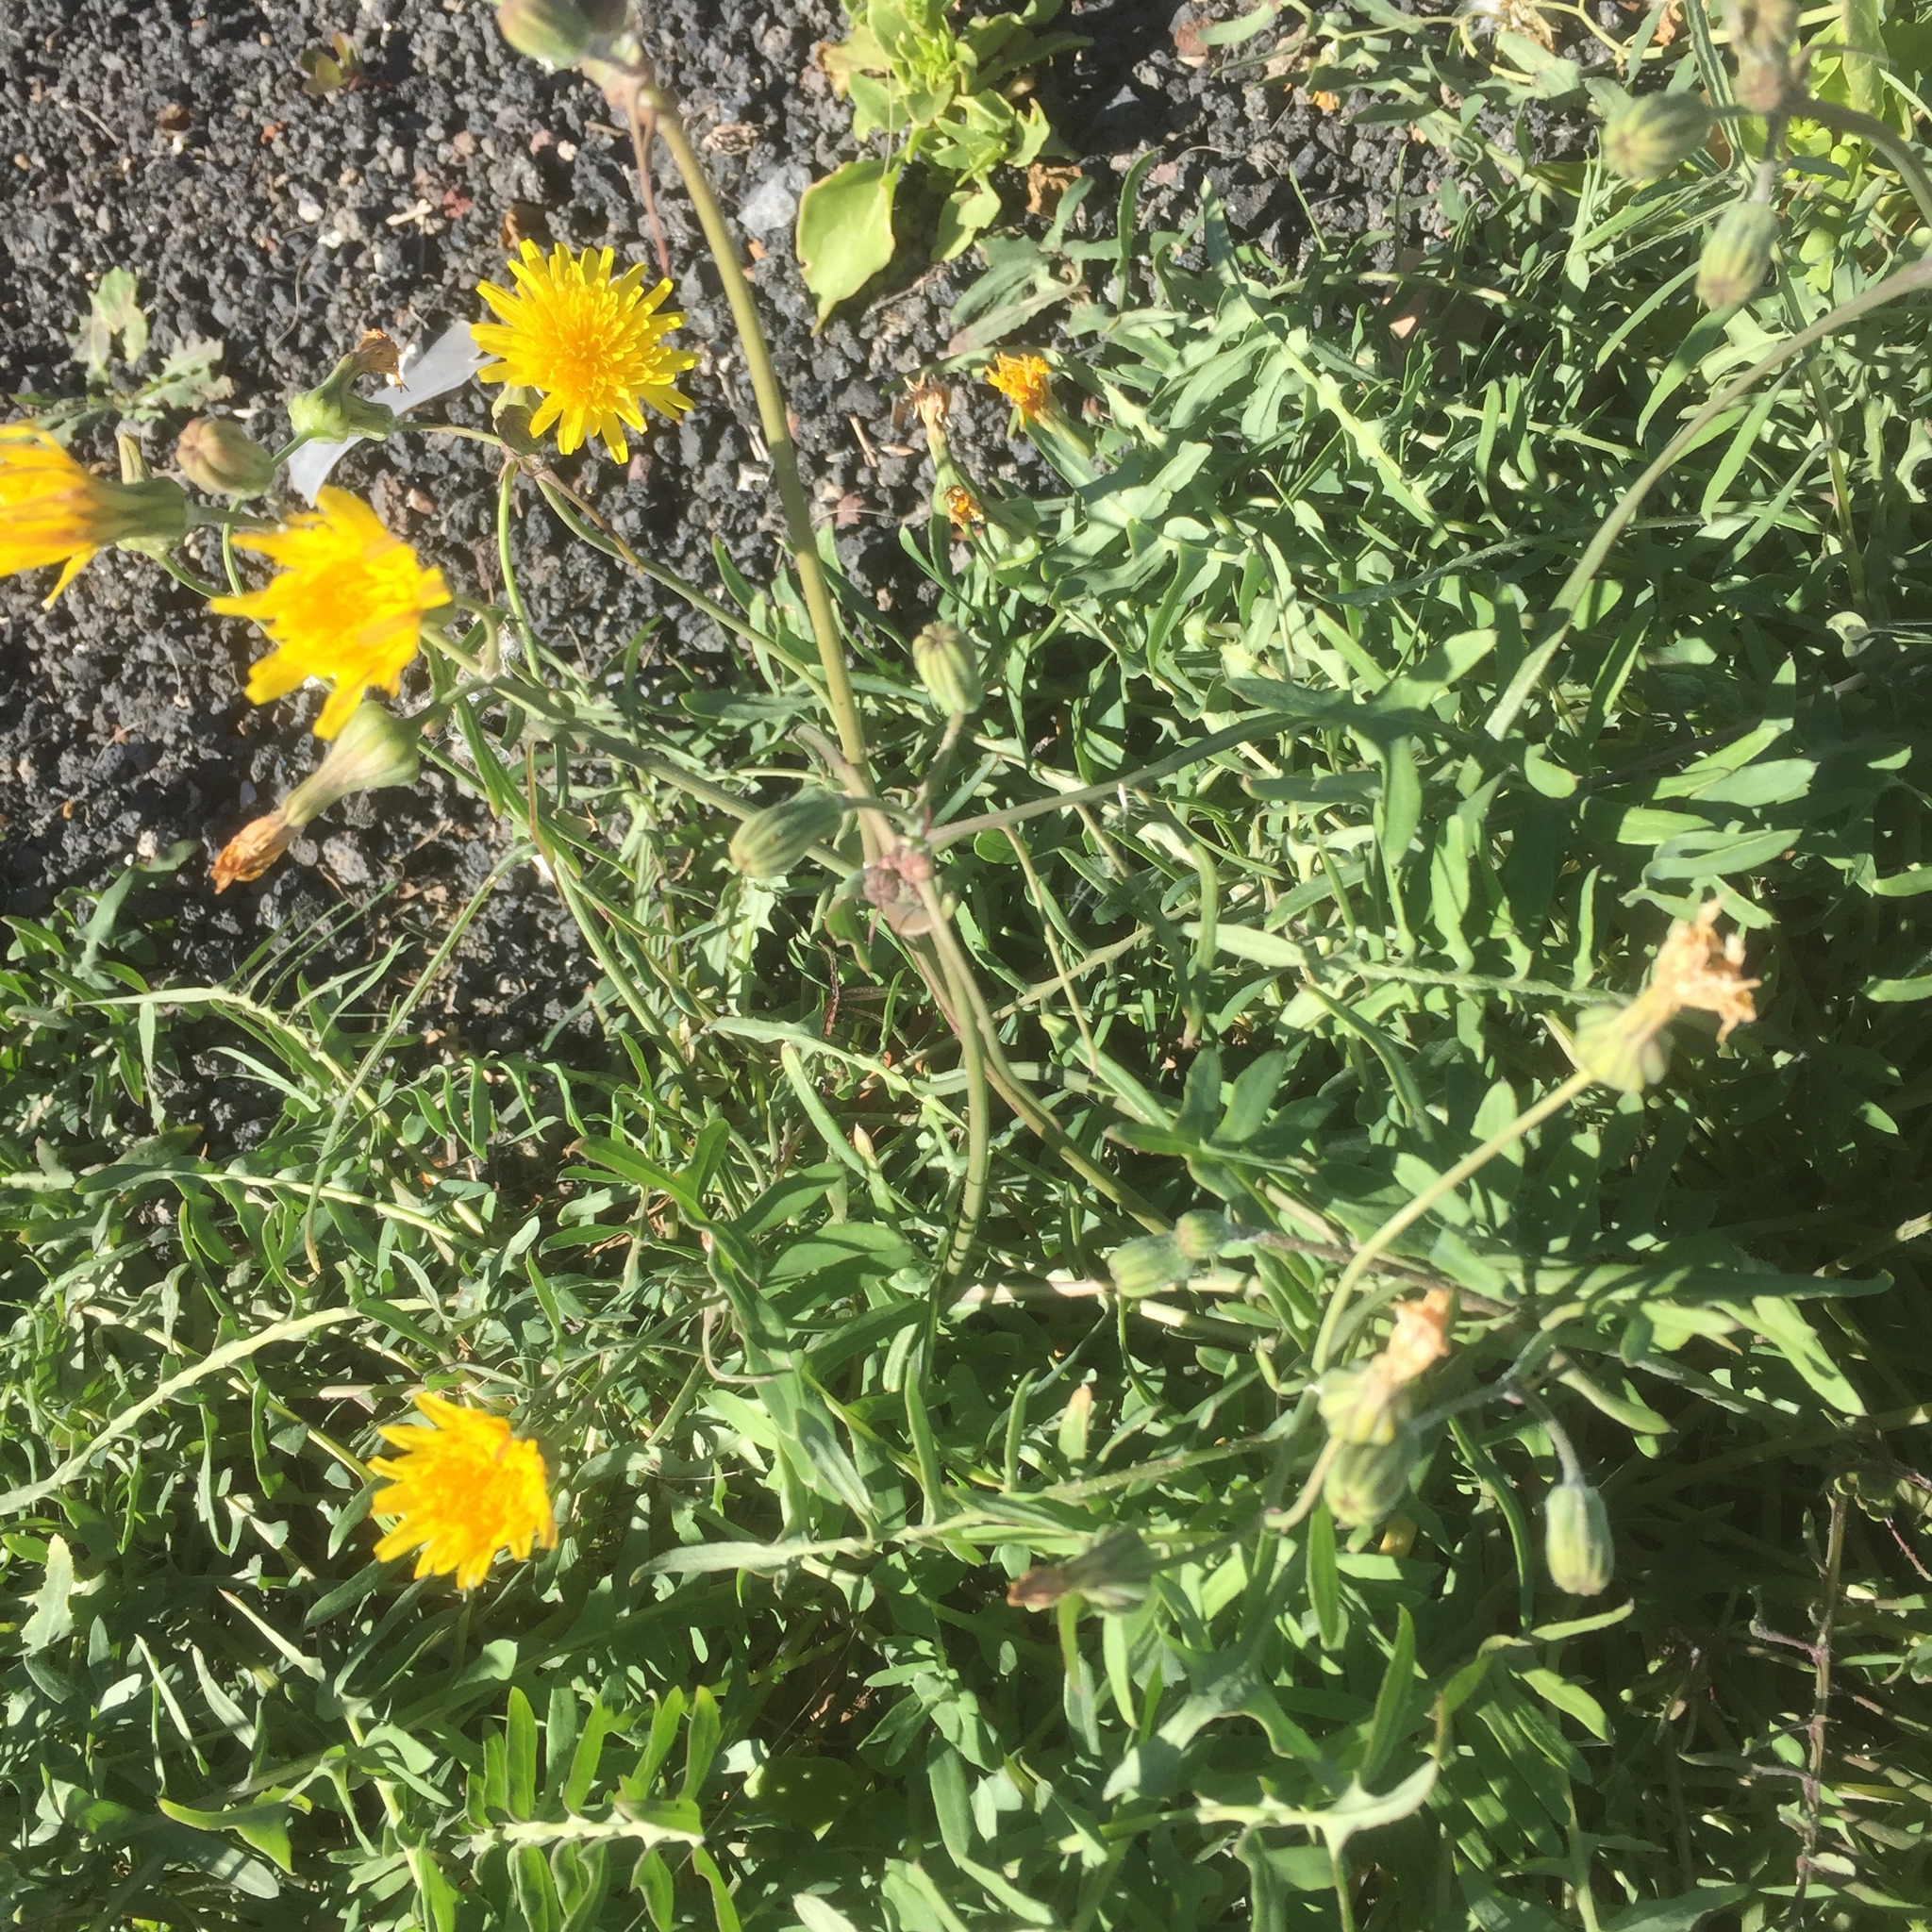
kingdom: Plantae
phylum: Tracheophyta
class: Magnoliopsida
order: Asterales
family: Asteraceae
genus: Sonchus
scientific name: Sonchus tenerrimus
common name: Clammy sowthistle
